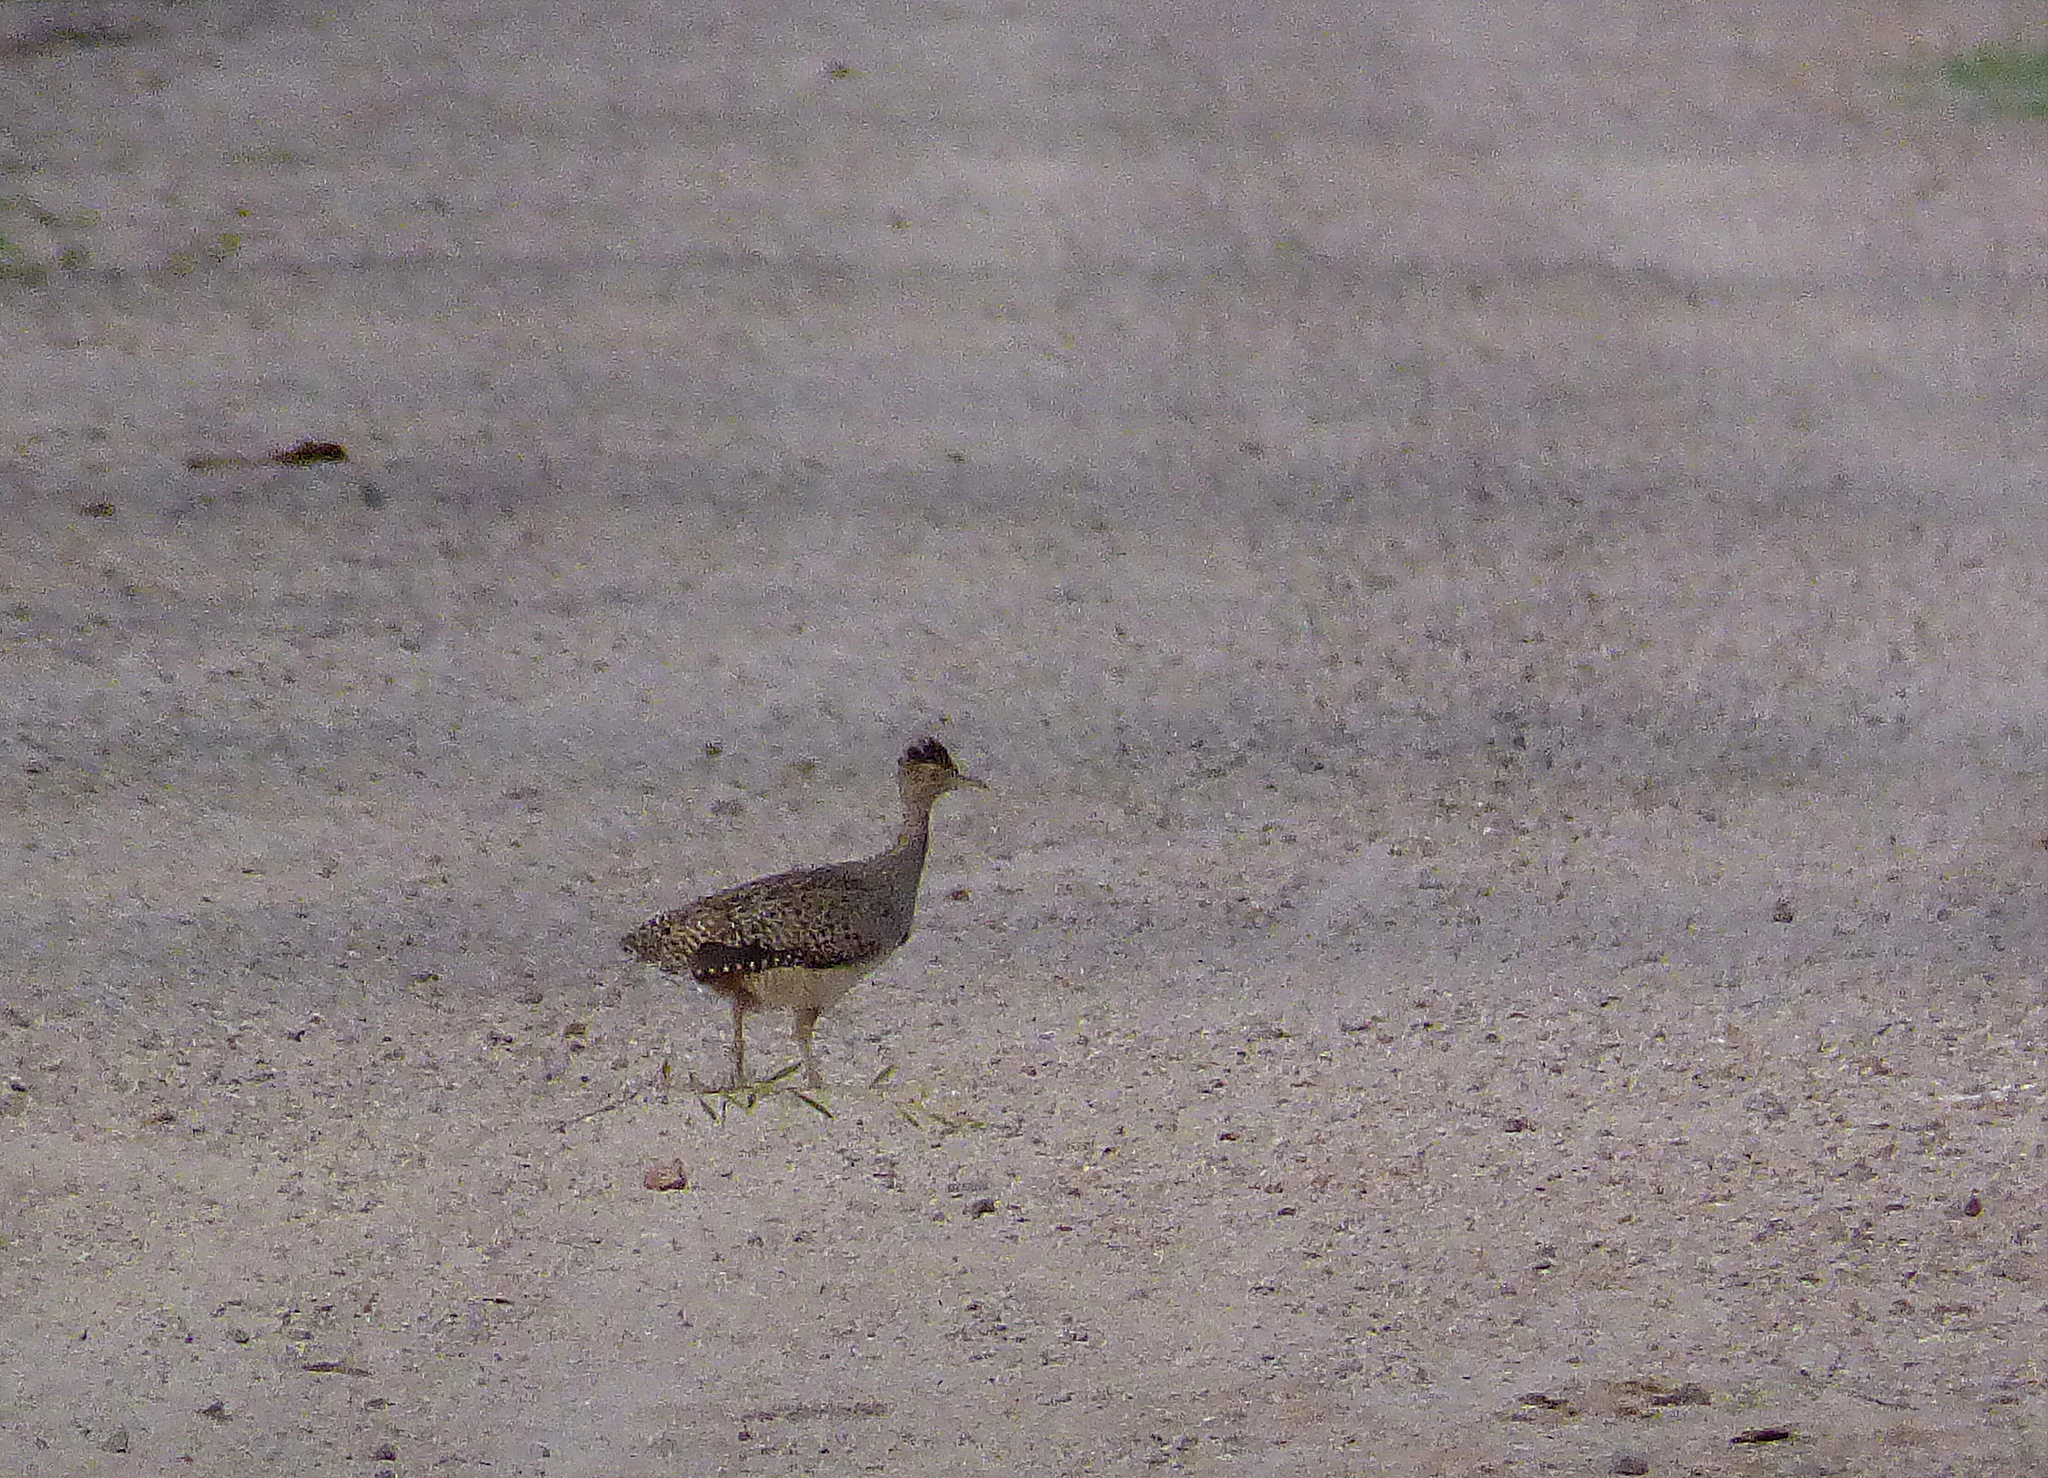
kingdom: Animalia
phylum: Chordata
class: Aves
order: Tinamiformes
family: Tinamidae
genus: Nothoprocta
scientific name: Nothoprocta cinerascens
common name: Brushland tinamou
